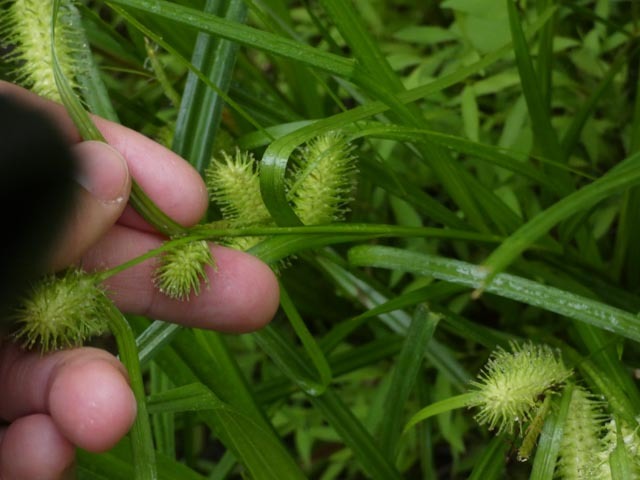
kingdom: Plantae
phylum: Tracheophyta
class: Liliopsida
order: Poales
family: Cyperaceae
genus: Carex
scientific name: Carex lurida
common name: Sallow sedge
